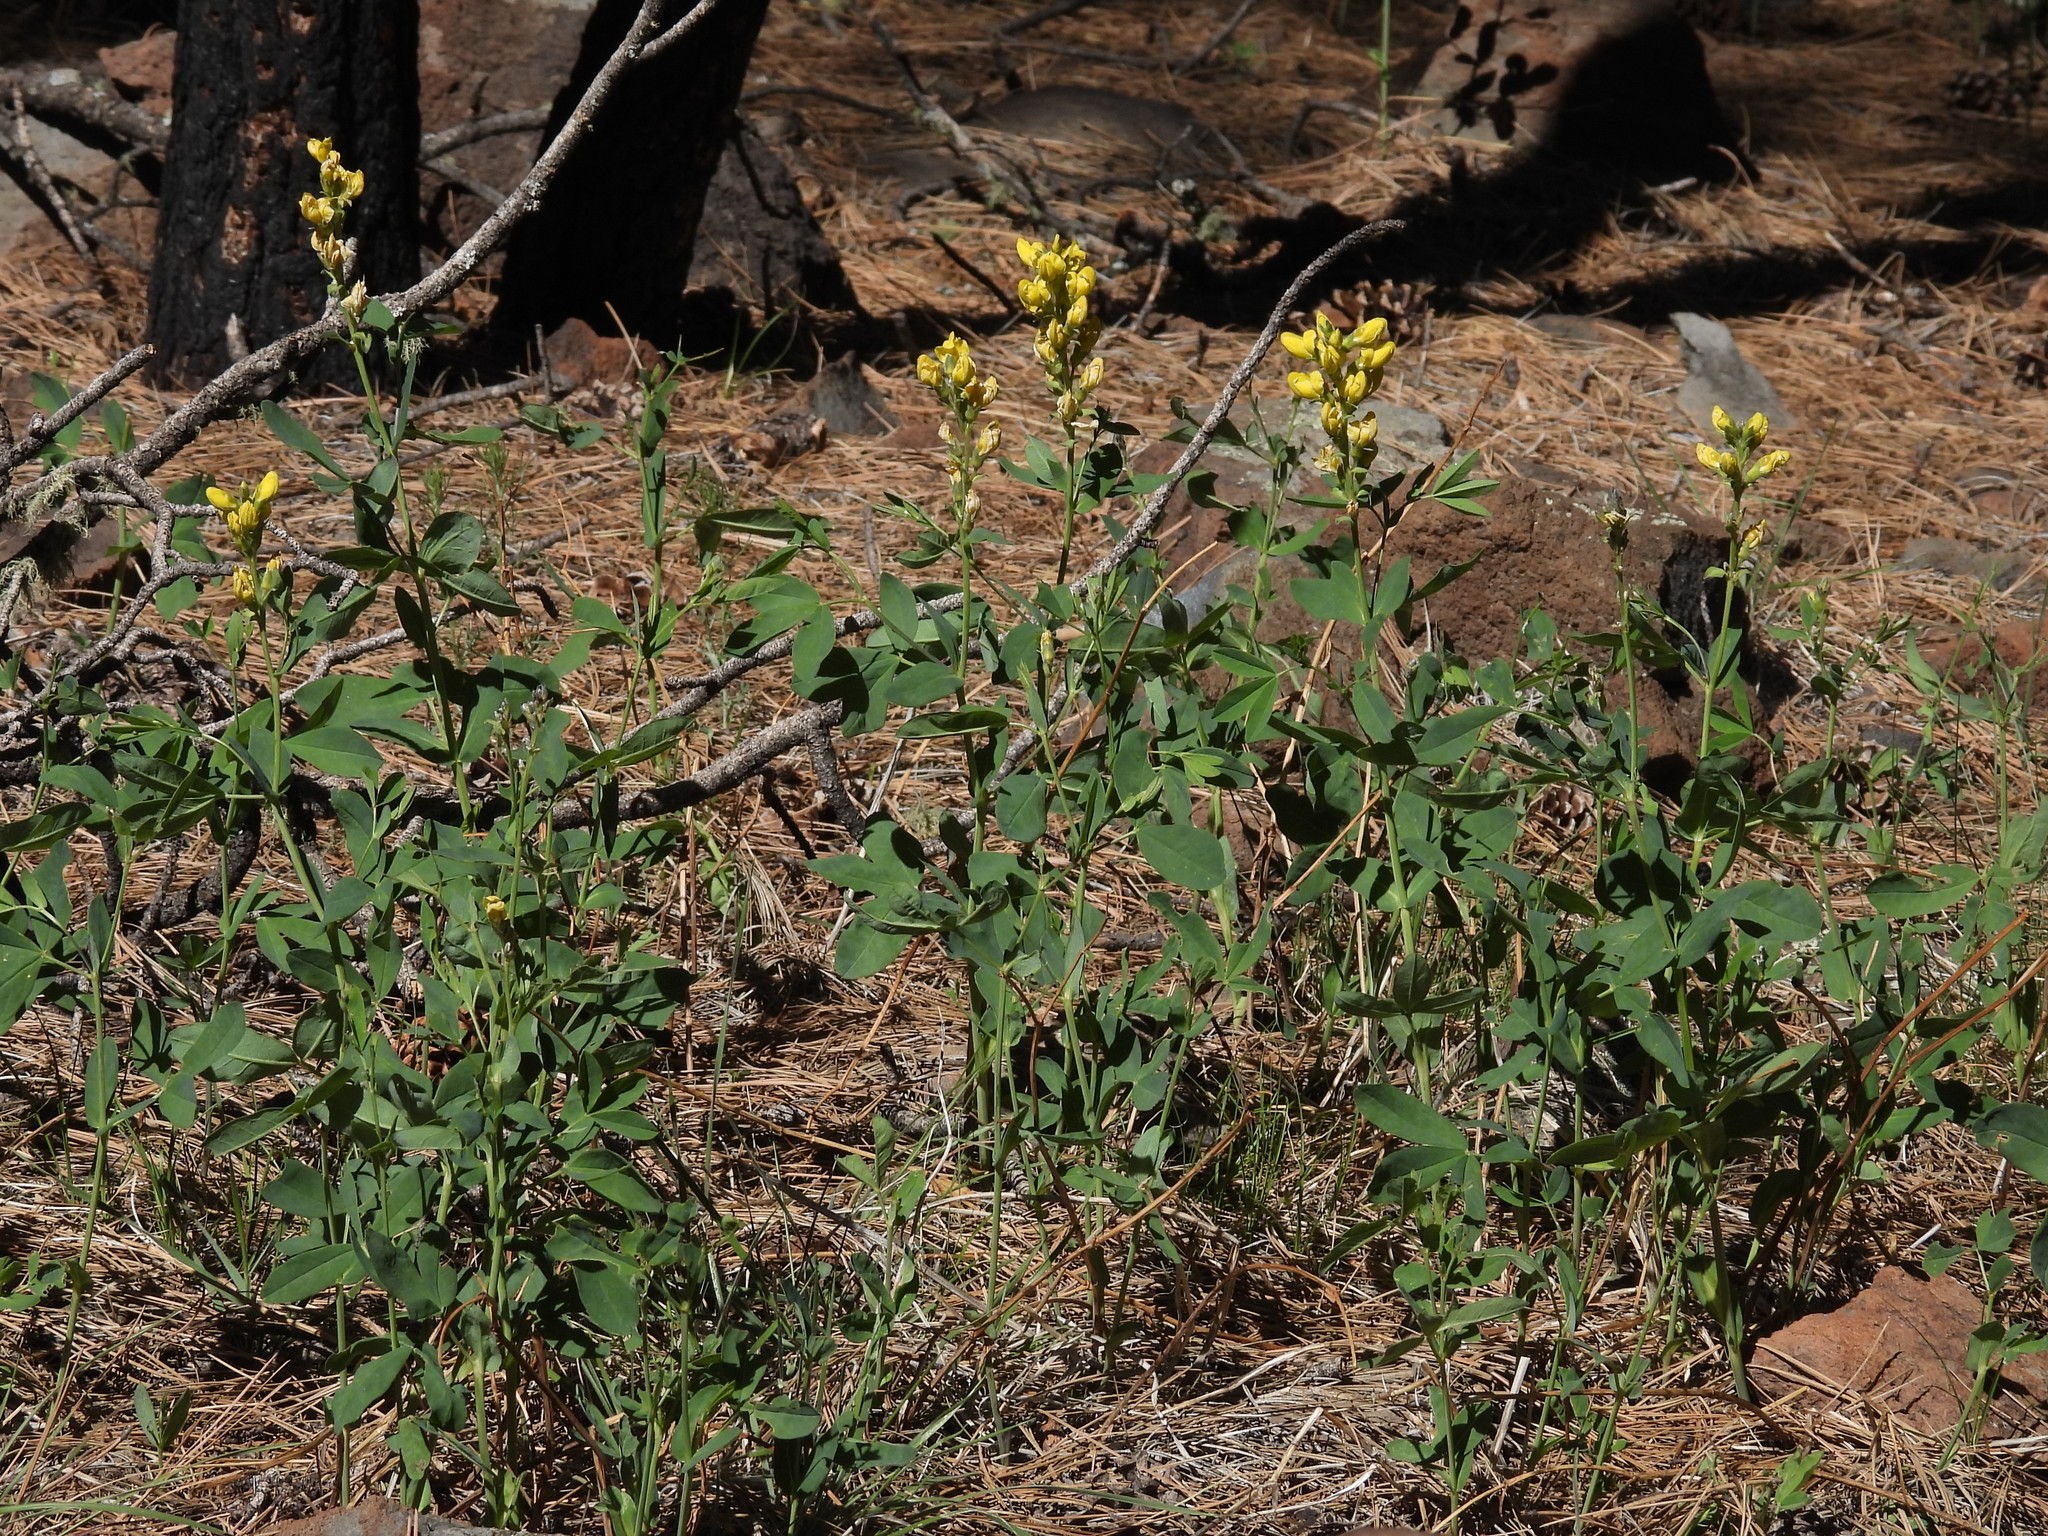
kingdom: Plantae
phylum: Tracheophyta
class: Magnoliopsida
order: Fabales
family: Fabaceae
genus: Thermopsis
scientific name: Thermopsis montana
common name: False lupin
